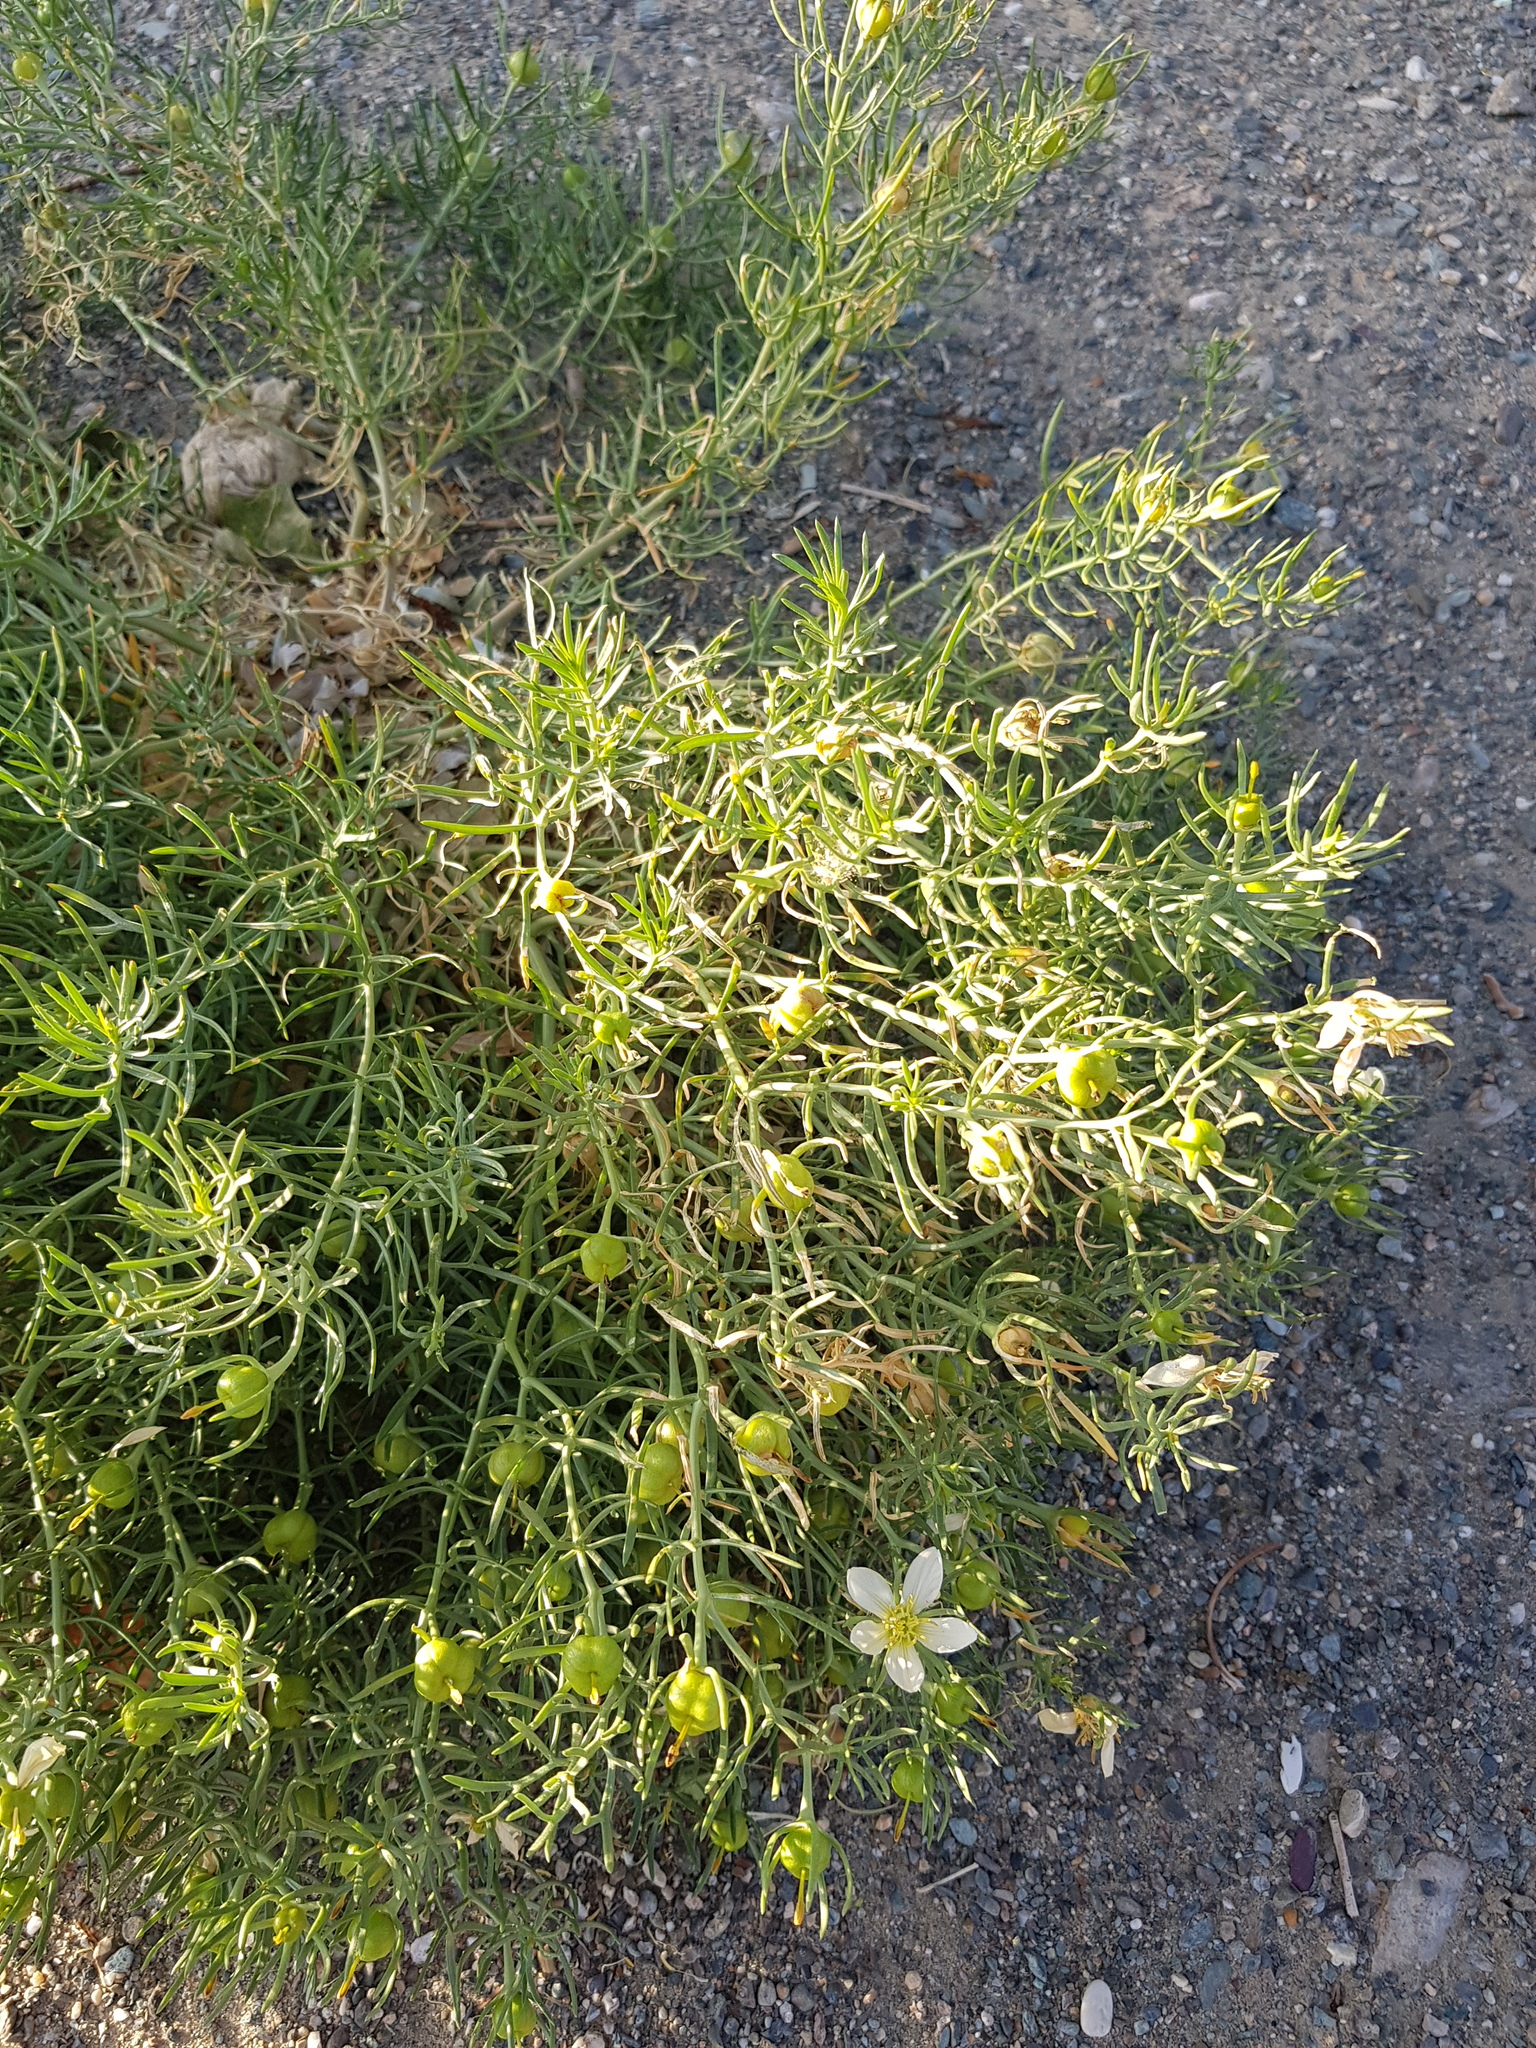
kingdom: Plantae
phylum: Tracheophyta
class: Magnoliopsida
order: Sapindales
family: Tetradiclidaceae
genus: Peganum
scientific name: Peganum harmala
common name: Harmal peganum
